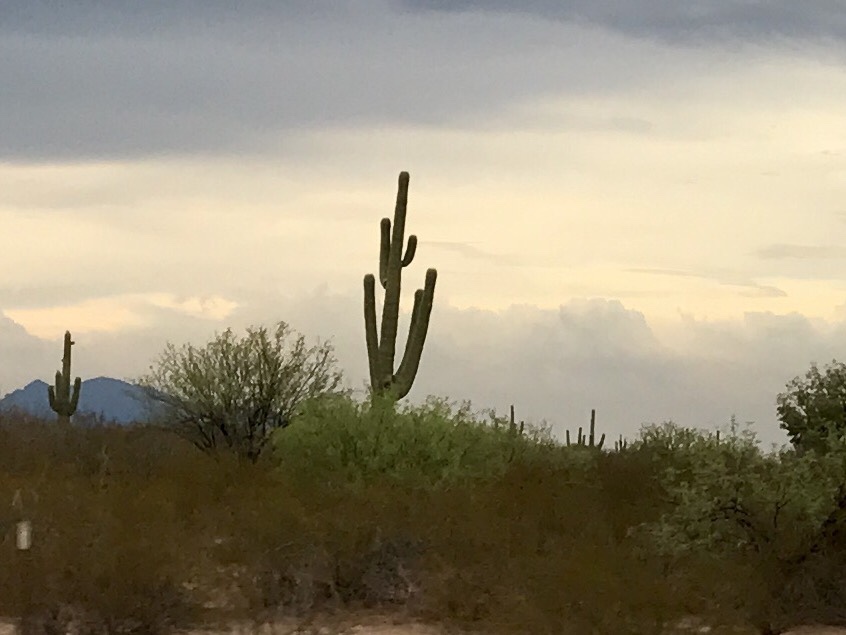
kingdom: Plantae
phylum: Tracheophyta
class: Magnoliopsida
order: Caryophyllales
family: Cactaceae
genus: Carnegiea
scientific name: Carnegiea gigantea
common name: Saguaro
